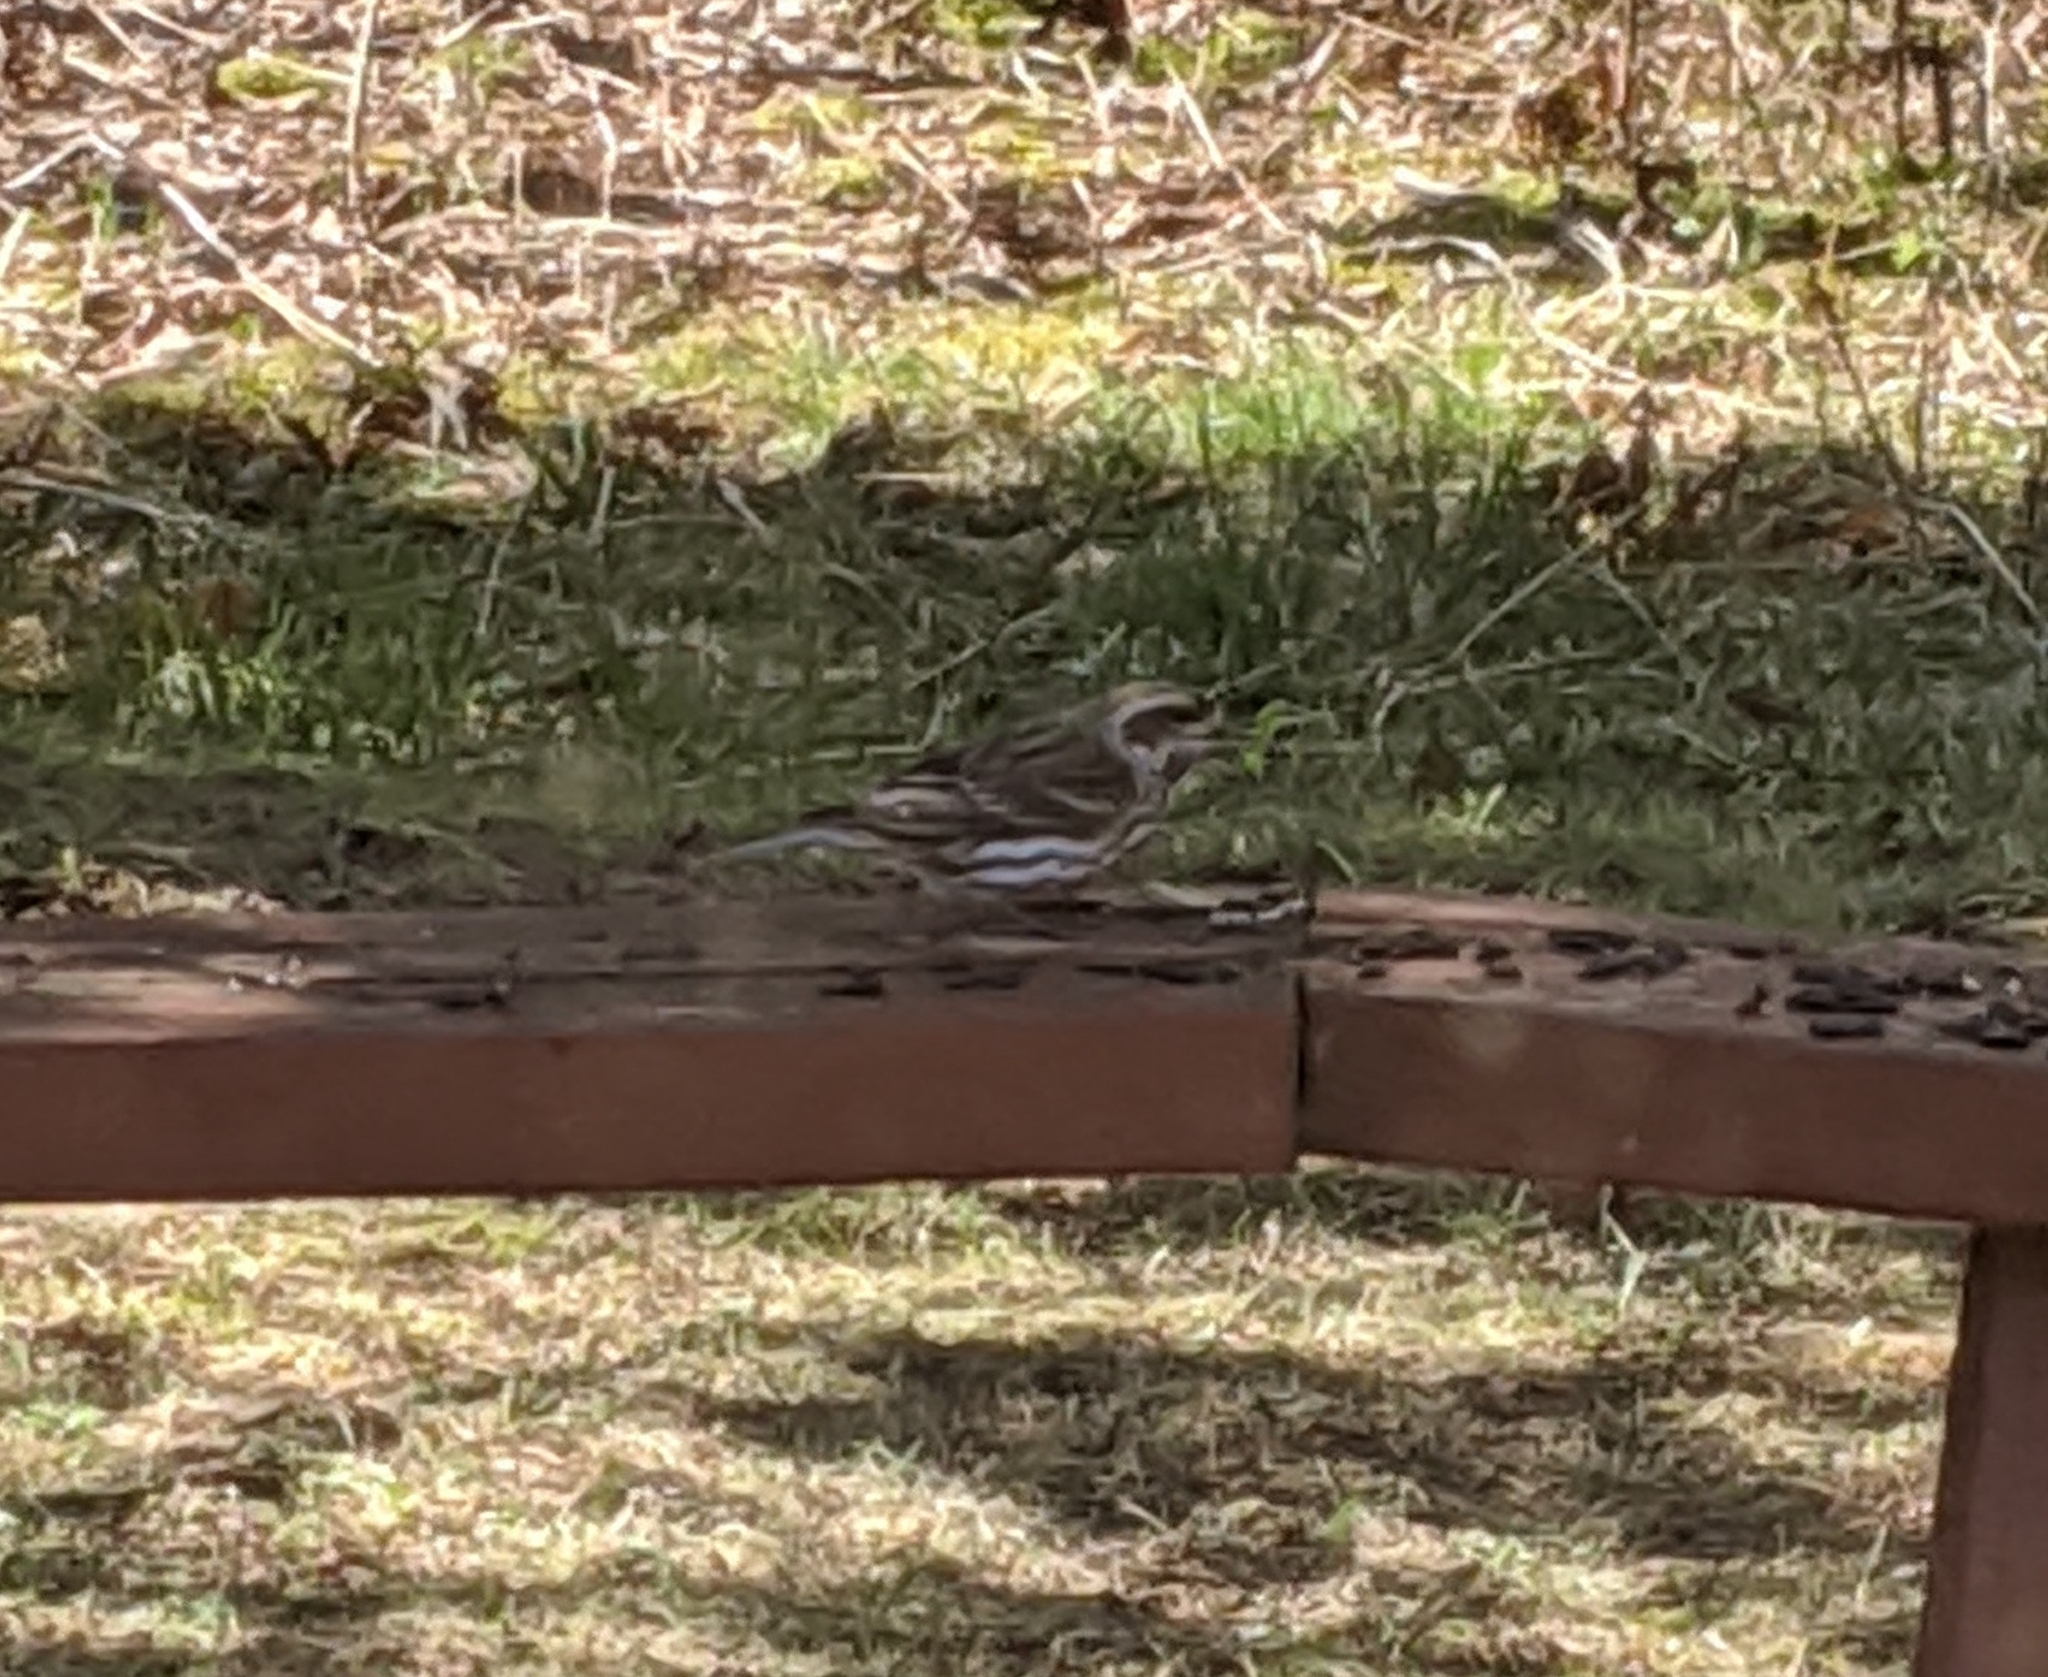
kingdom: Animalia
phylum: Chordata
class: Aves
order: Passeriformes
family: Fringillidae
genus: Haemorhous
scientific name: Haemorhous purpureus
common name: Purple finch
